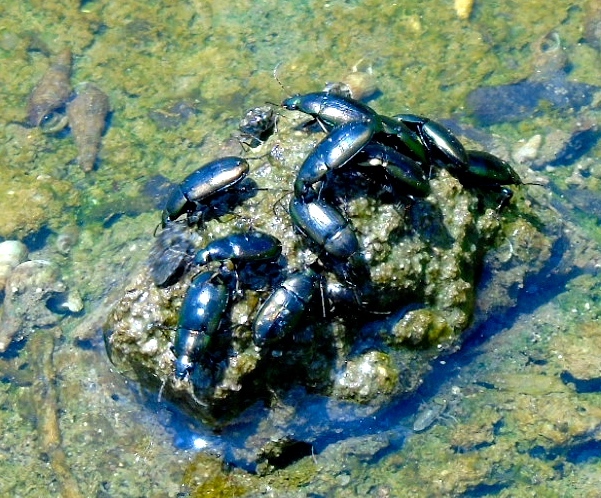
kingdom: Animalia
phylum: Arthropoda
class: Insecta
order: Coleoptera
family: Carabidae
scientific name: Carabidae
